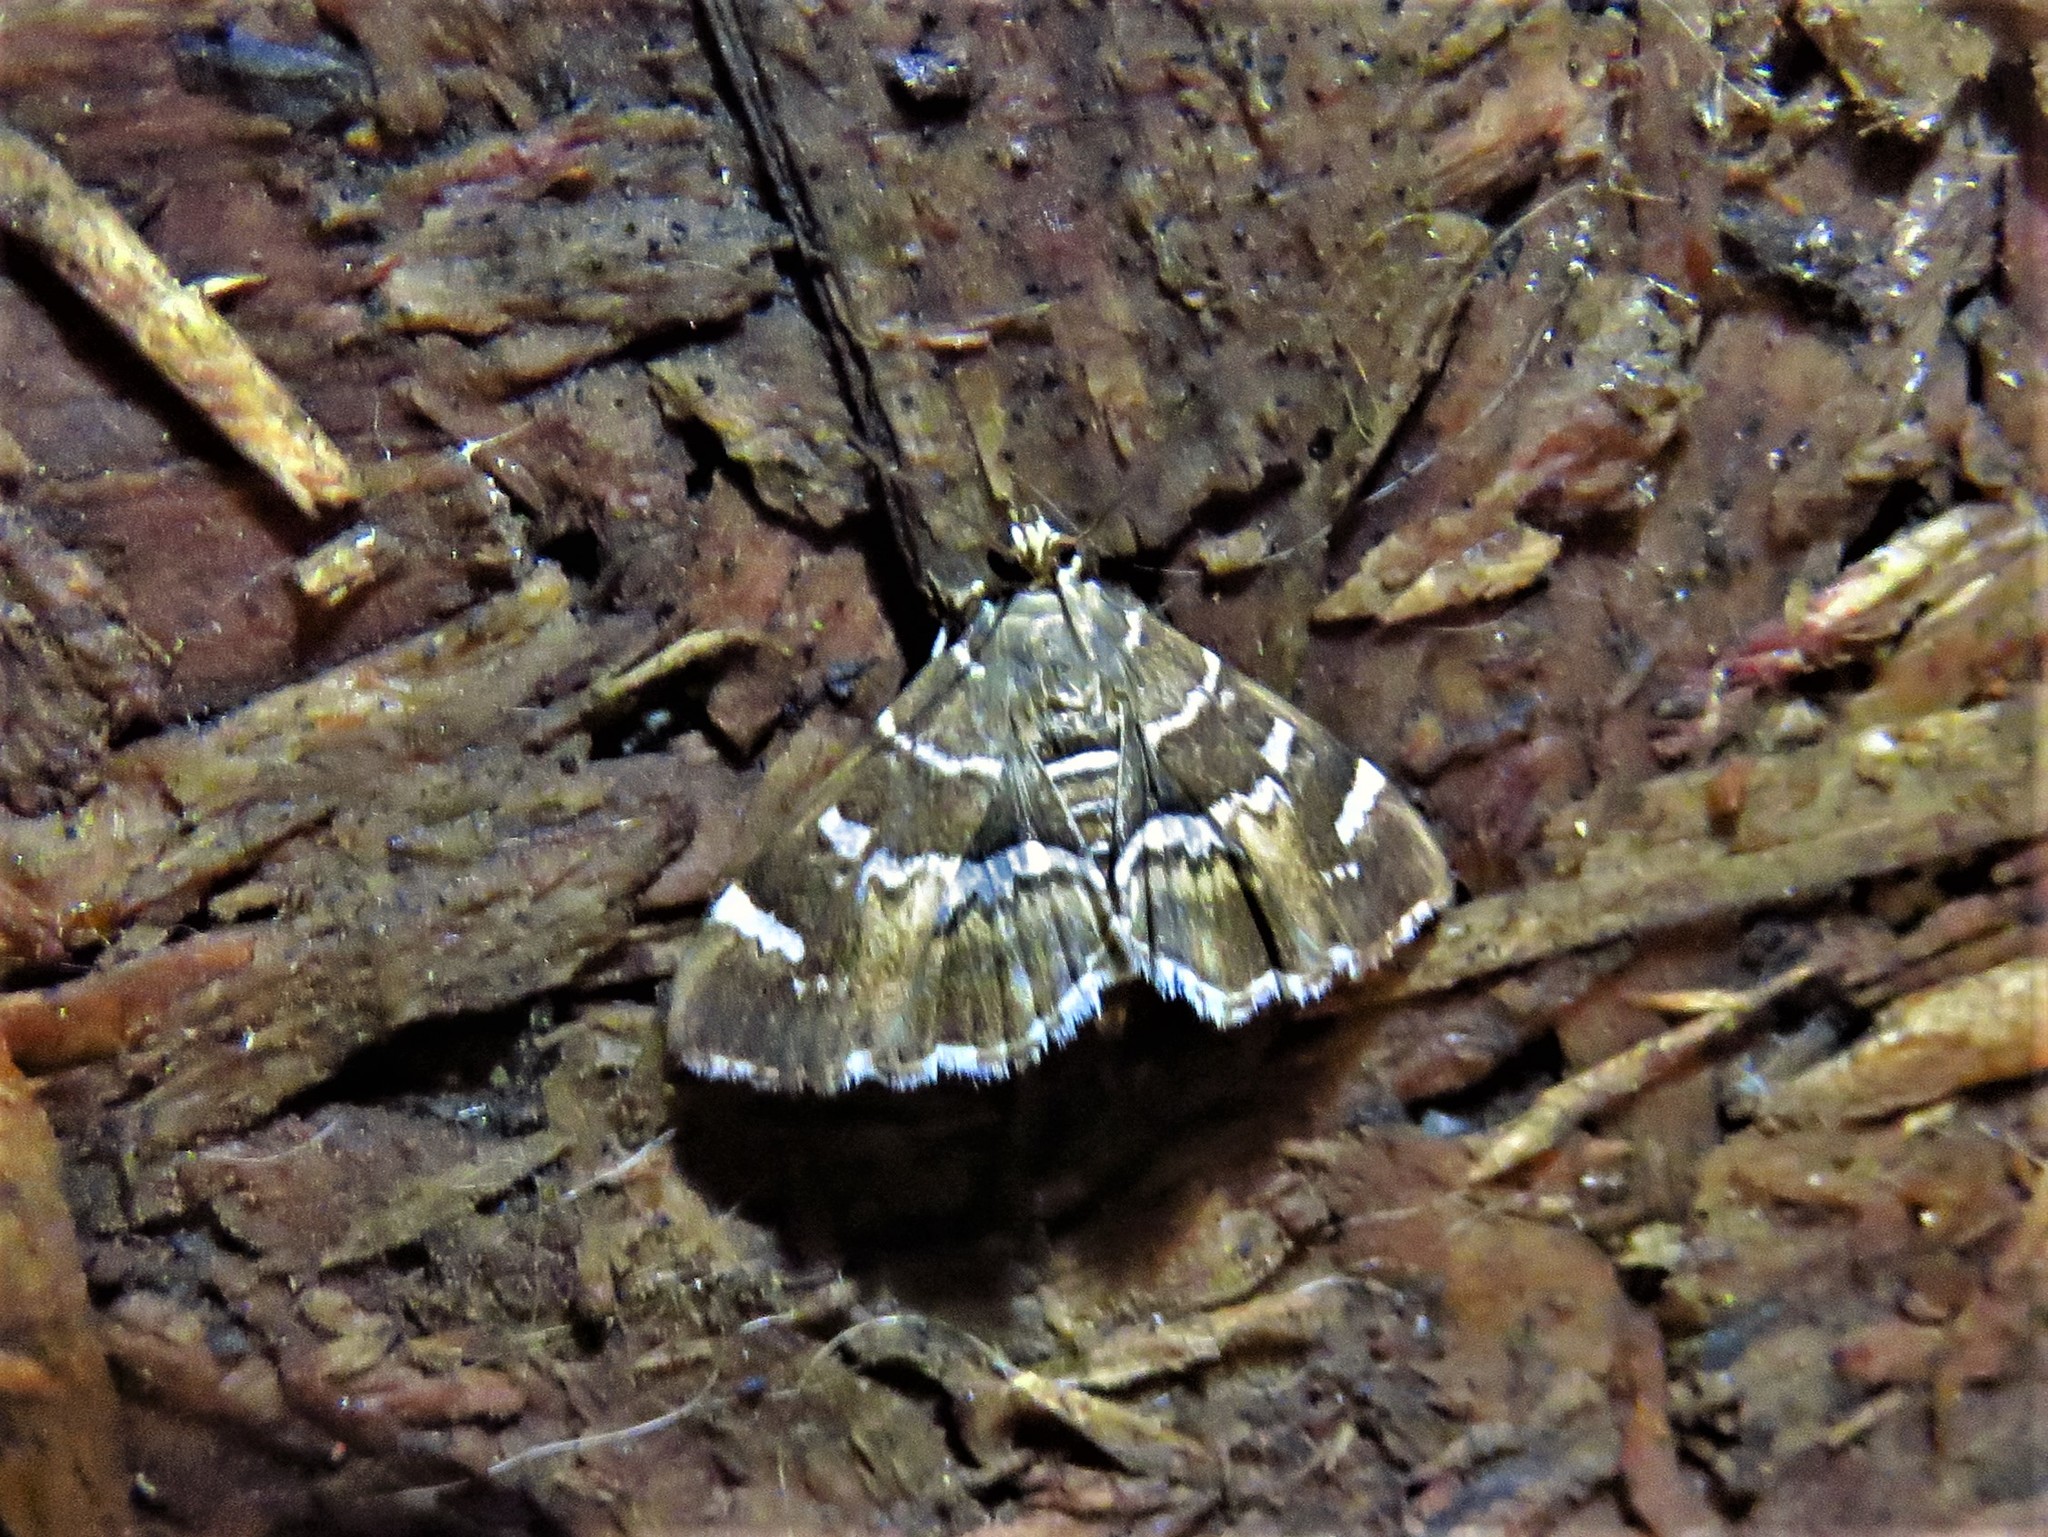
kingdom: Animalia
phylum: Arthropoda
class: Insecta
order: Lepidoptera
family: Crambidae
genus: Hymenia
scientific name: Hymenia perspectalis
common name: Spotted beet webworm
